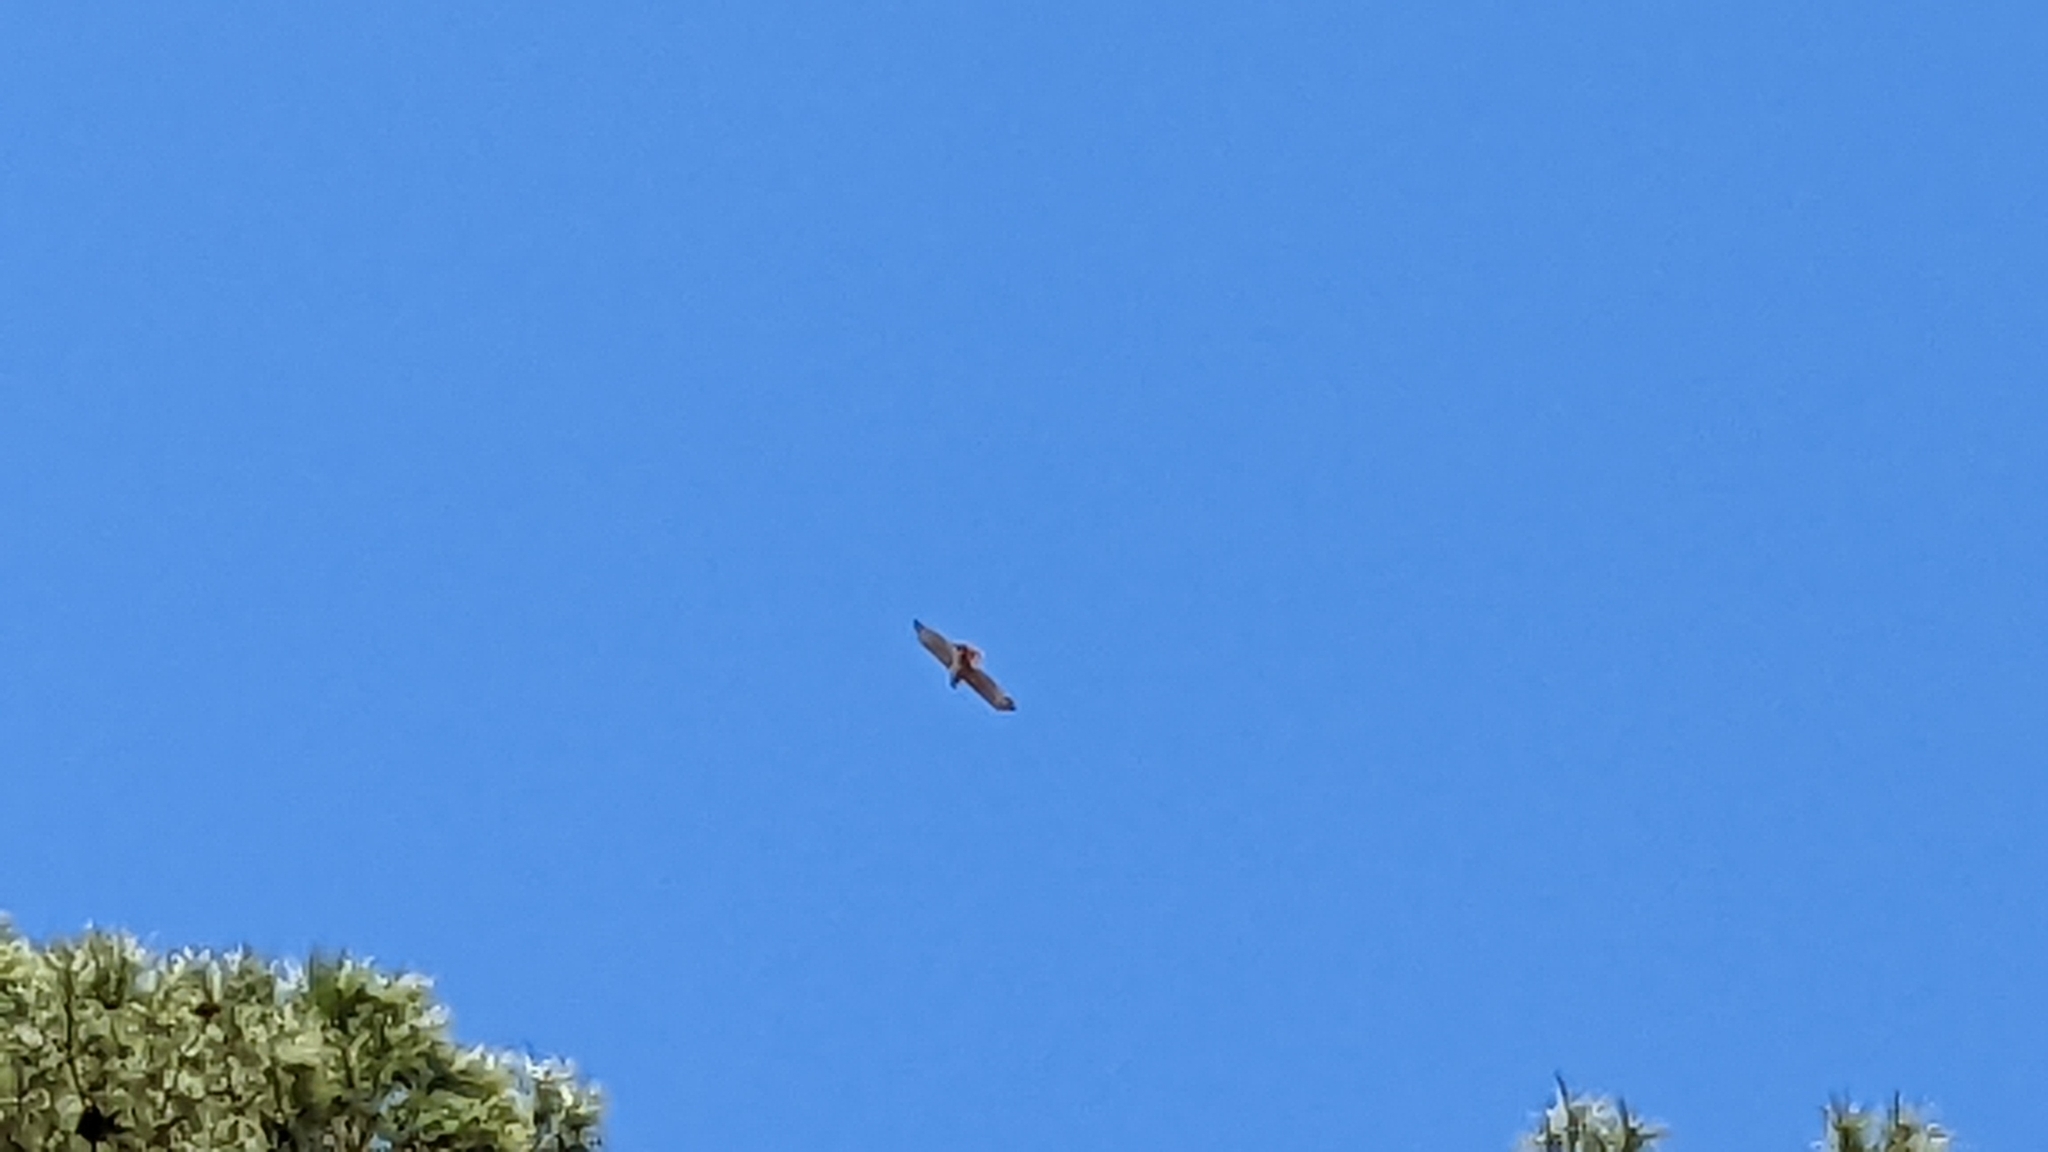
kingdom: Animalia
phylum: Chordata
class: Aves
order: Accipitriformes
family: Accipitridae
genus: Buteo
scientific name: Buteo jamaicensis
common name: Red-tailed hawk
